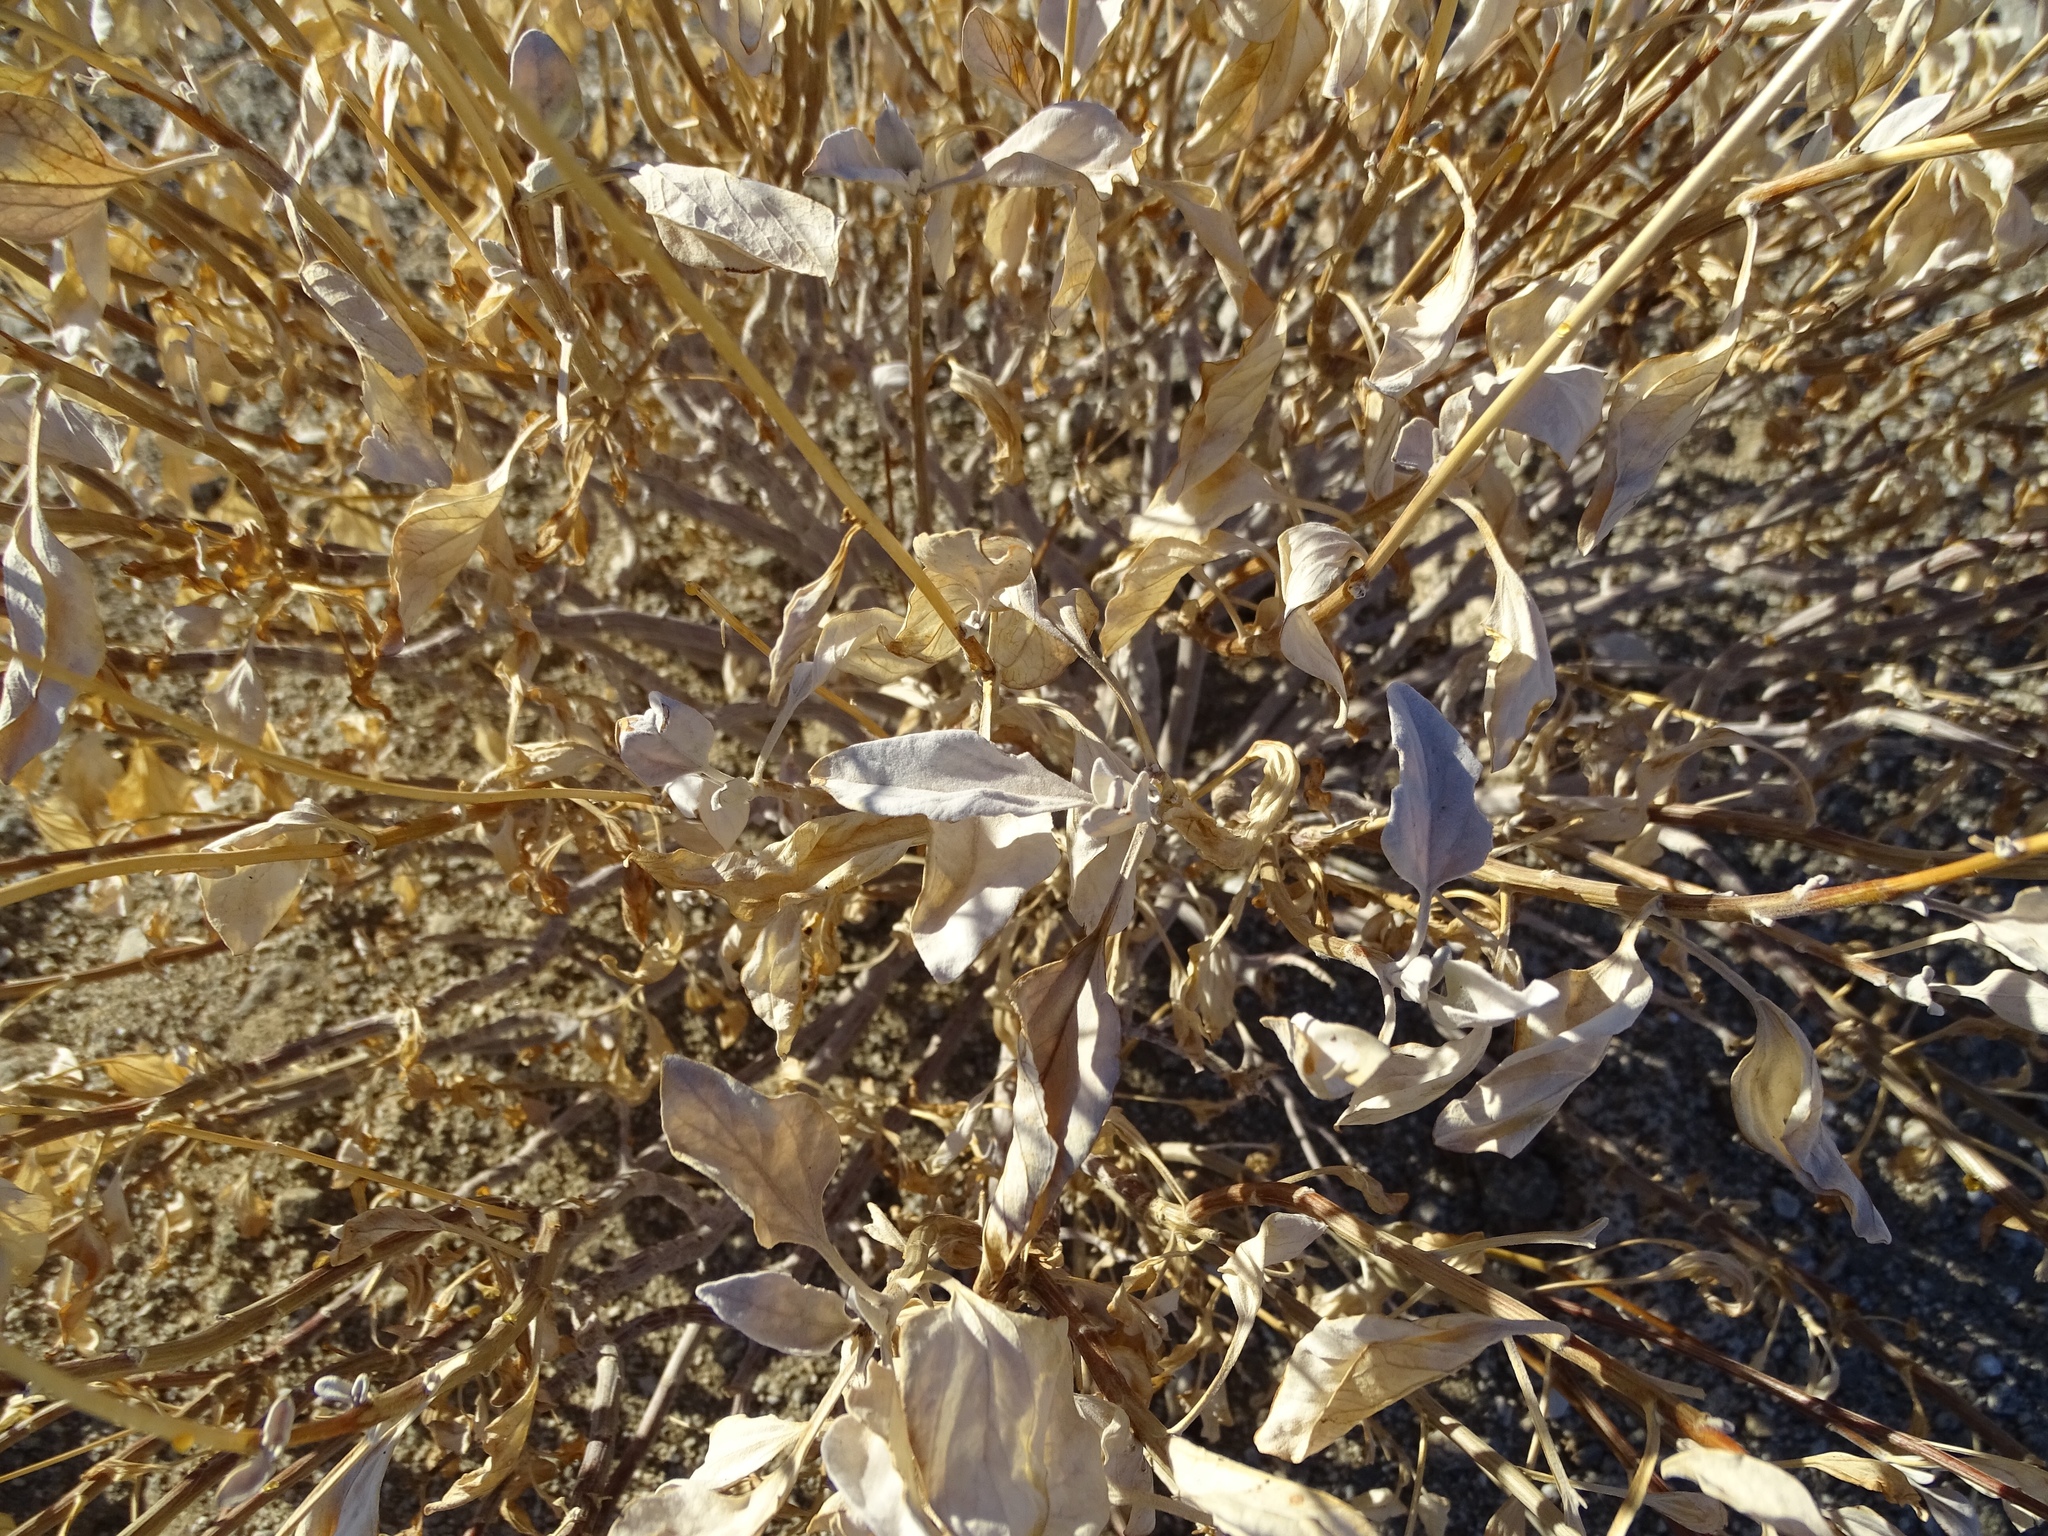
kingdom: Plantae
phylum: Tracheophyta
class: Magnoliopsida
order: Asterales
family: Asteraceae
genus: Encelia
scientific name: Encelia farinosa
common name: Brittlebush
